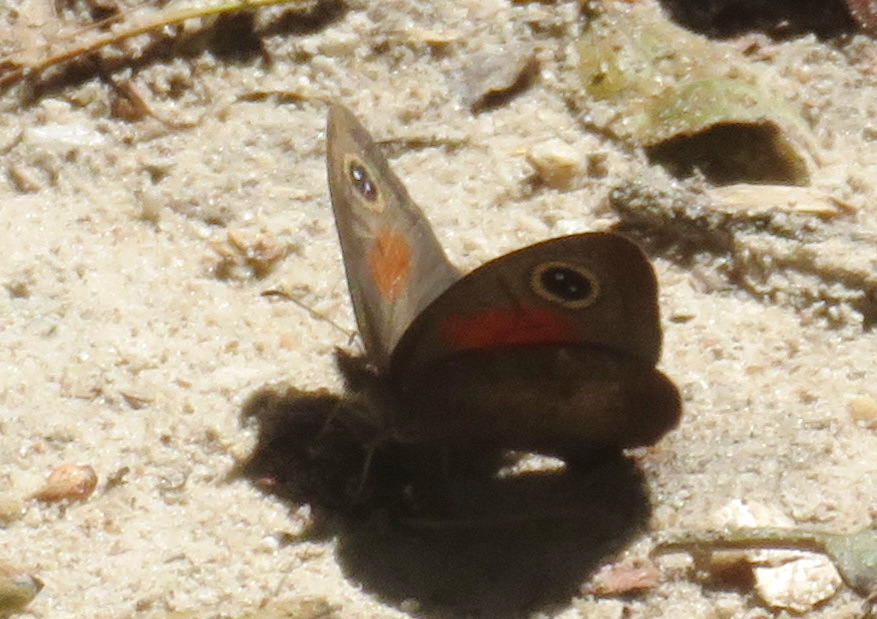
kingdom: Animalia
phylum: Arthropoda
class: Insecta
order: Lepidoptera
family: Nymphalidae
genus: Cassionympha
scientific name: Cassionympha cassius
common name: Rainforest brown
